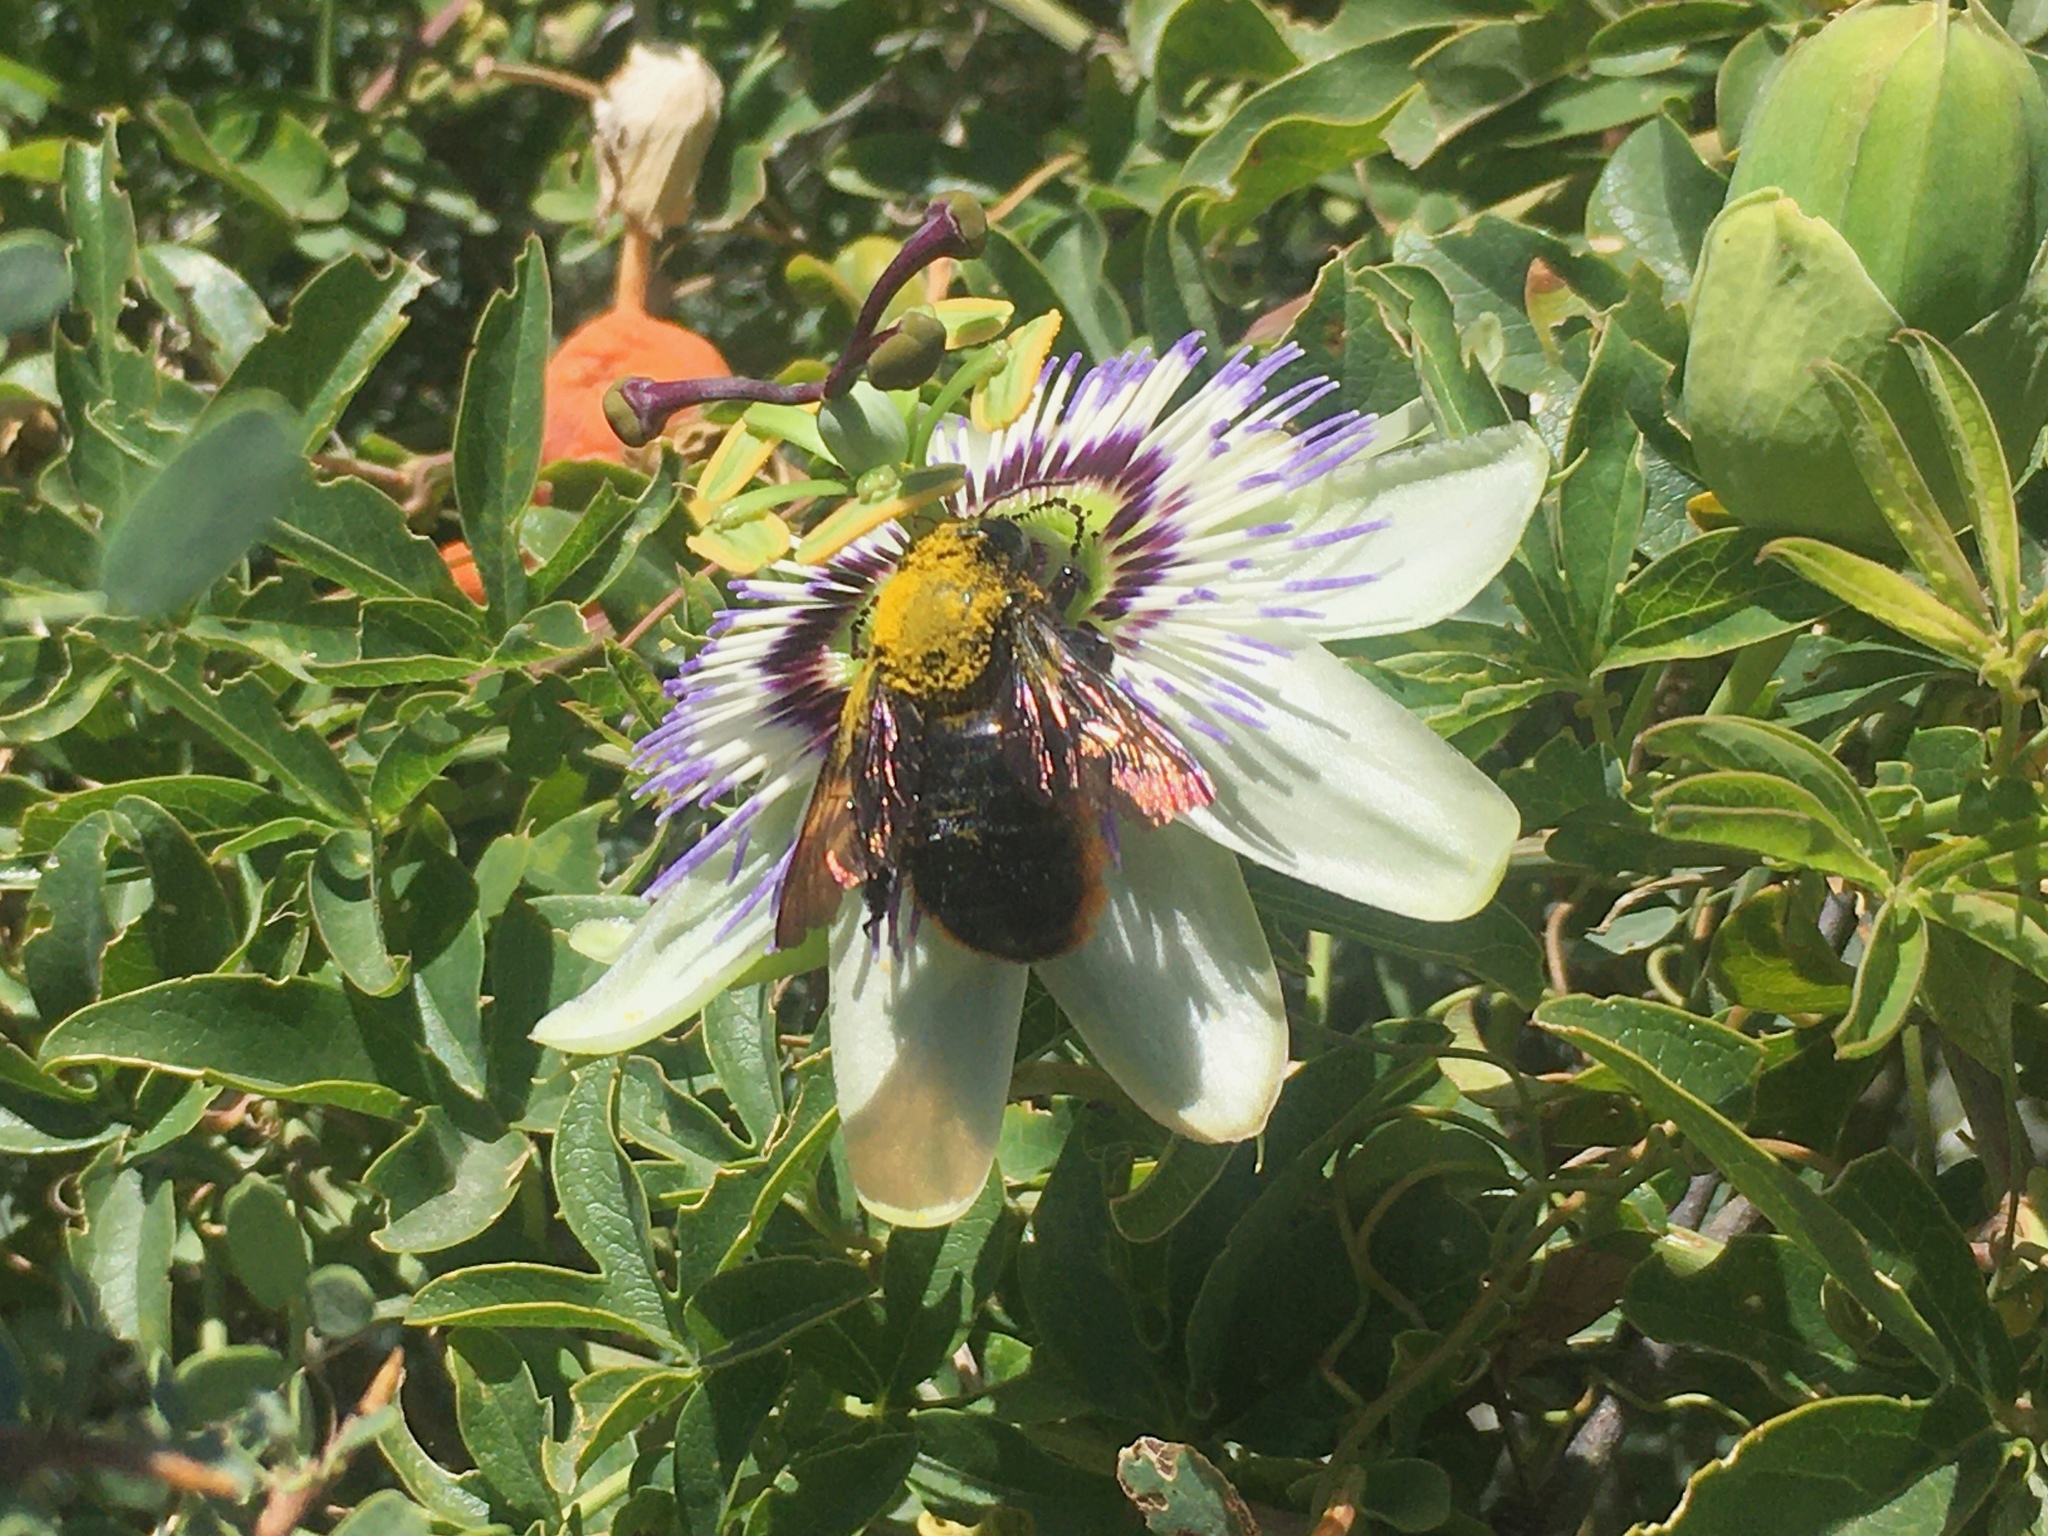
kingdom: Animalia
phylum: Arthropoda
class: Insecta
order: Hymenoptera
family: Apidae
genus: Xylocopa
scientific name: Xylocopa augusti
